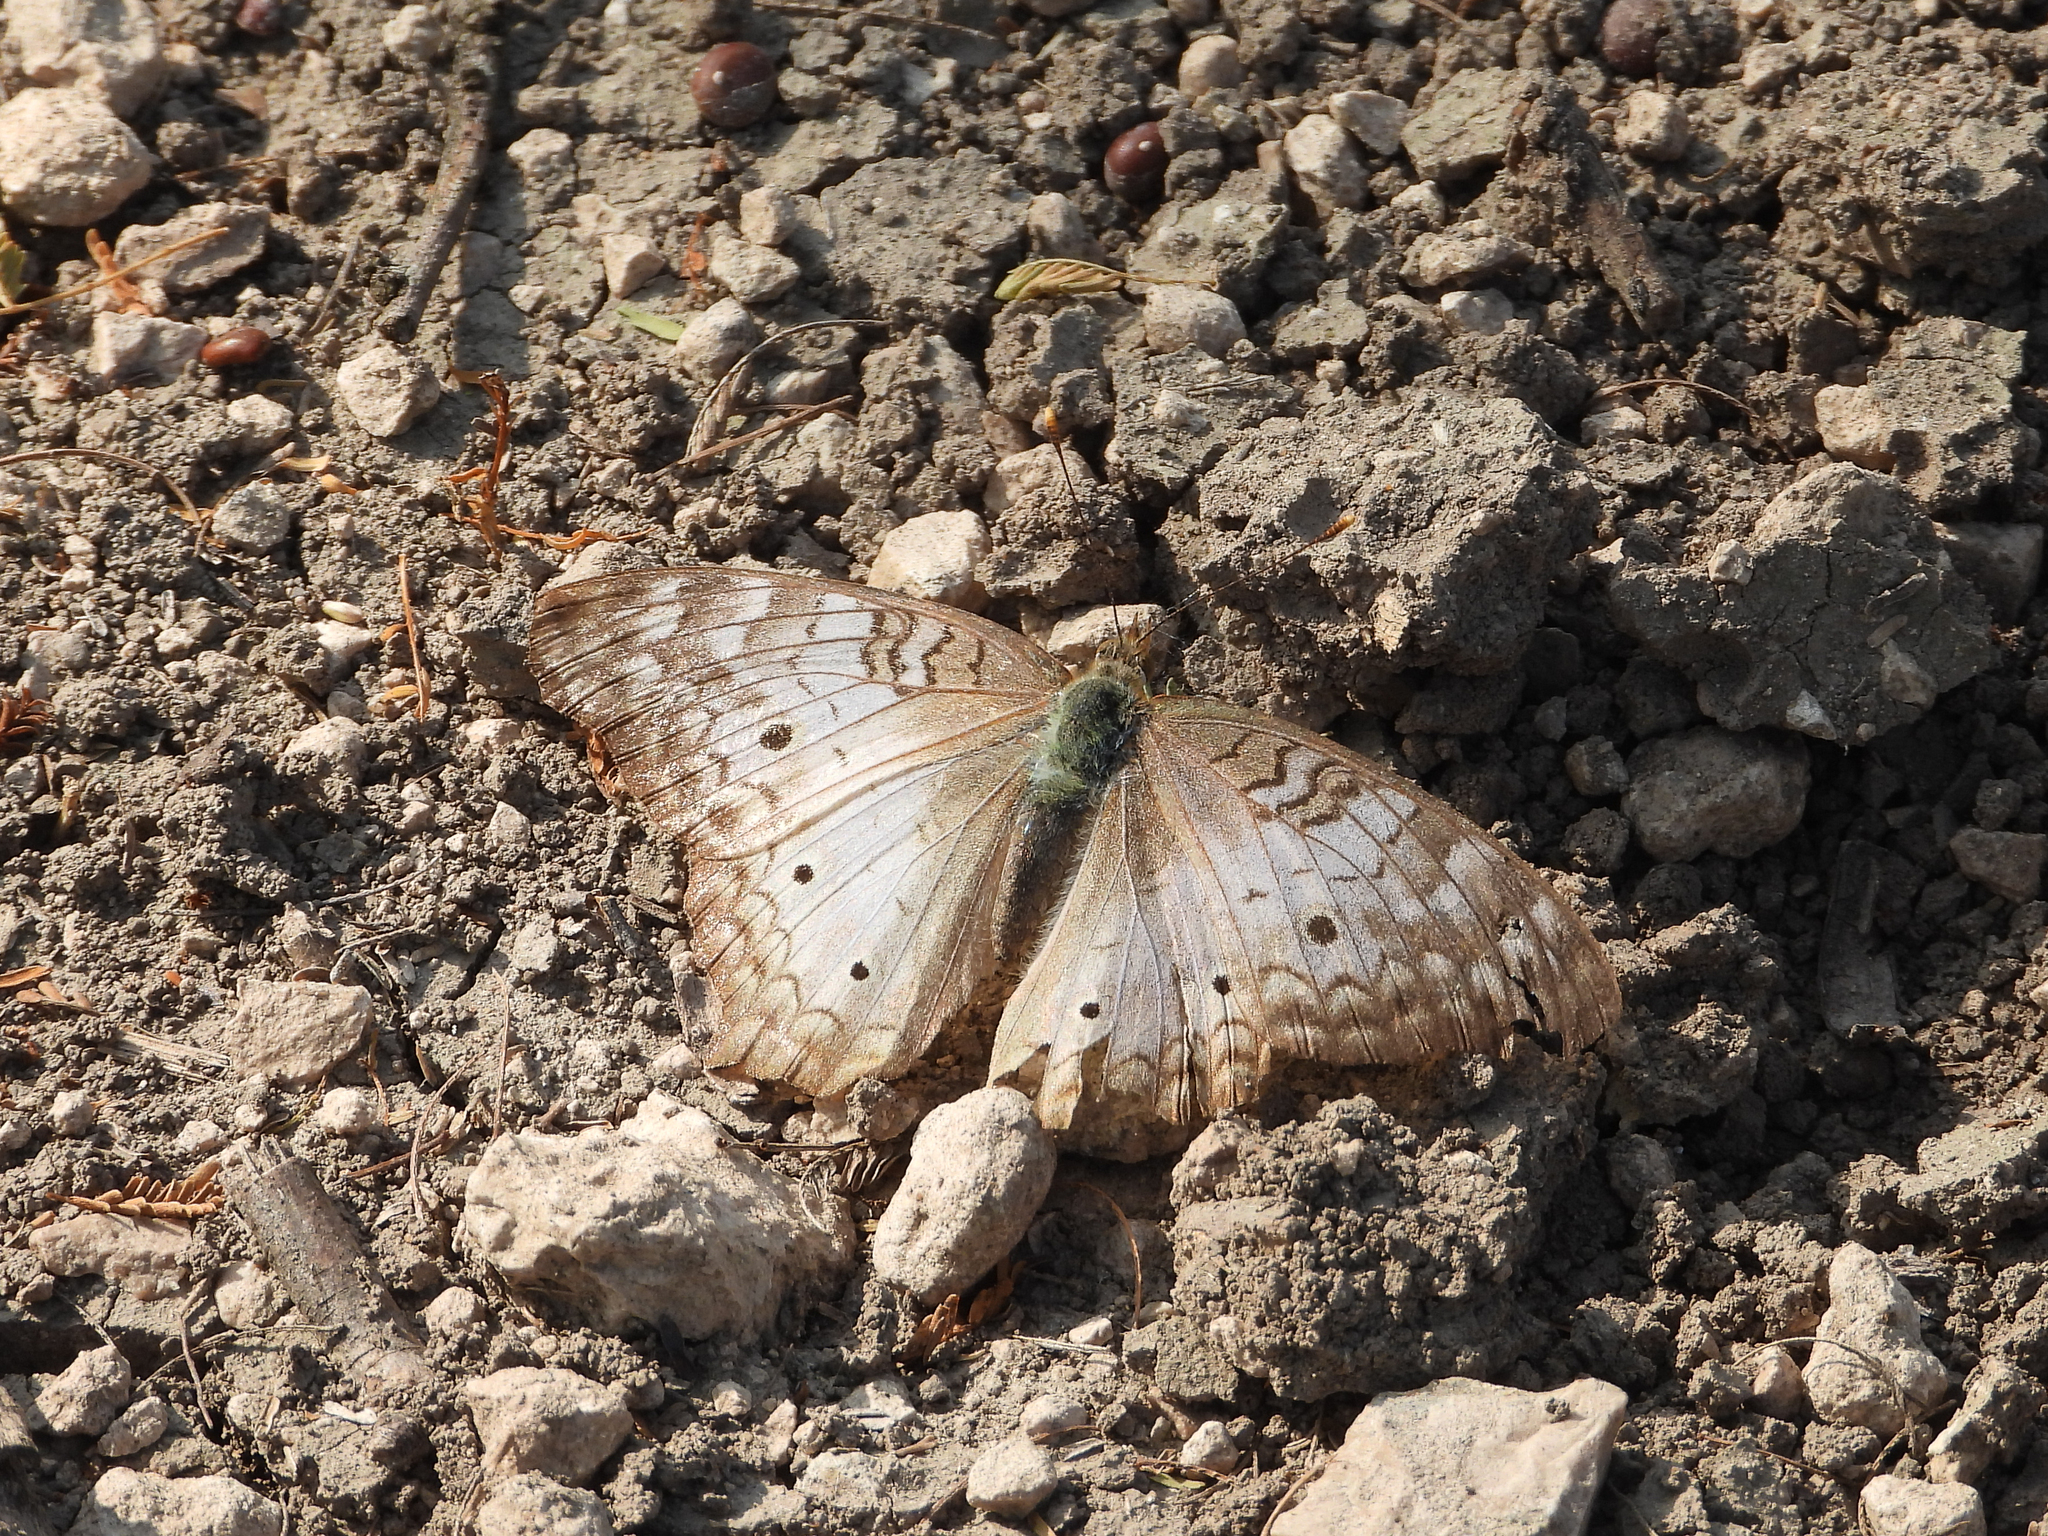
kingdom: Animalia
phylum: Arthropoda
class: Insecta
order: Lepidoptera
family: Nymphalidae
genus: Anartia
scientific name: Anartia jatrophae
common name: White peacock
